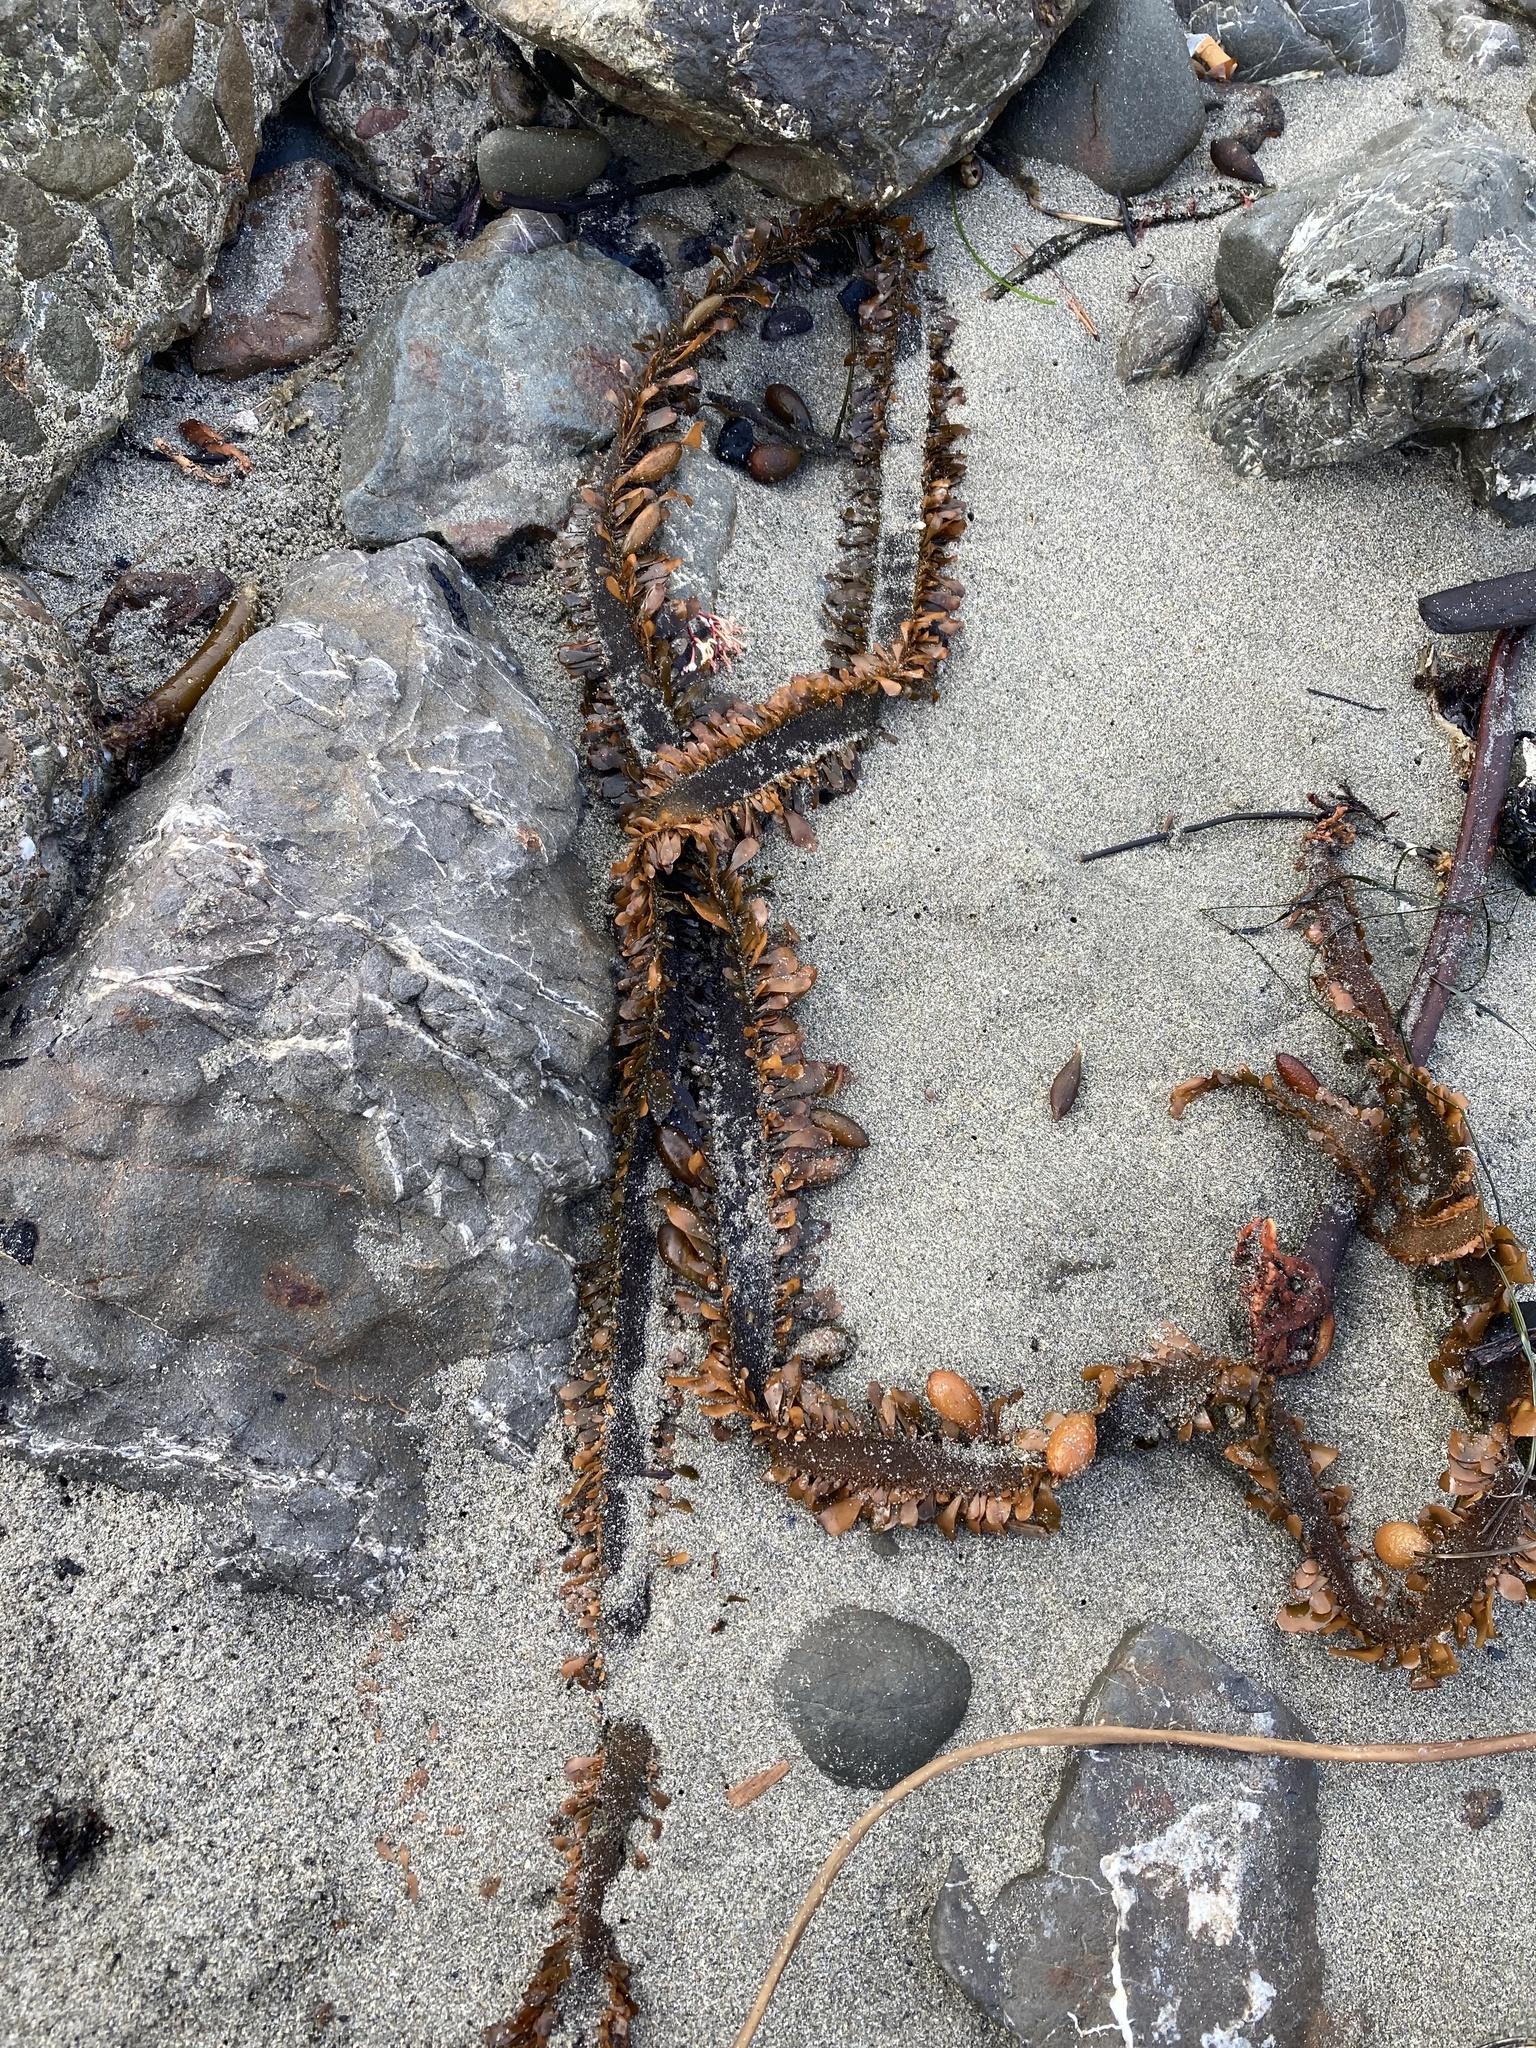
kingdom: Chromista
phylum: Ochrophyta
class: Phaeophyceae
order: Laminariales
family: Lessoniaceae
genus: Egregia
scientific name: Egregia menziesii
